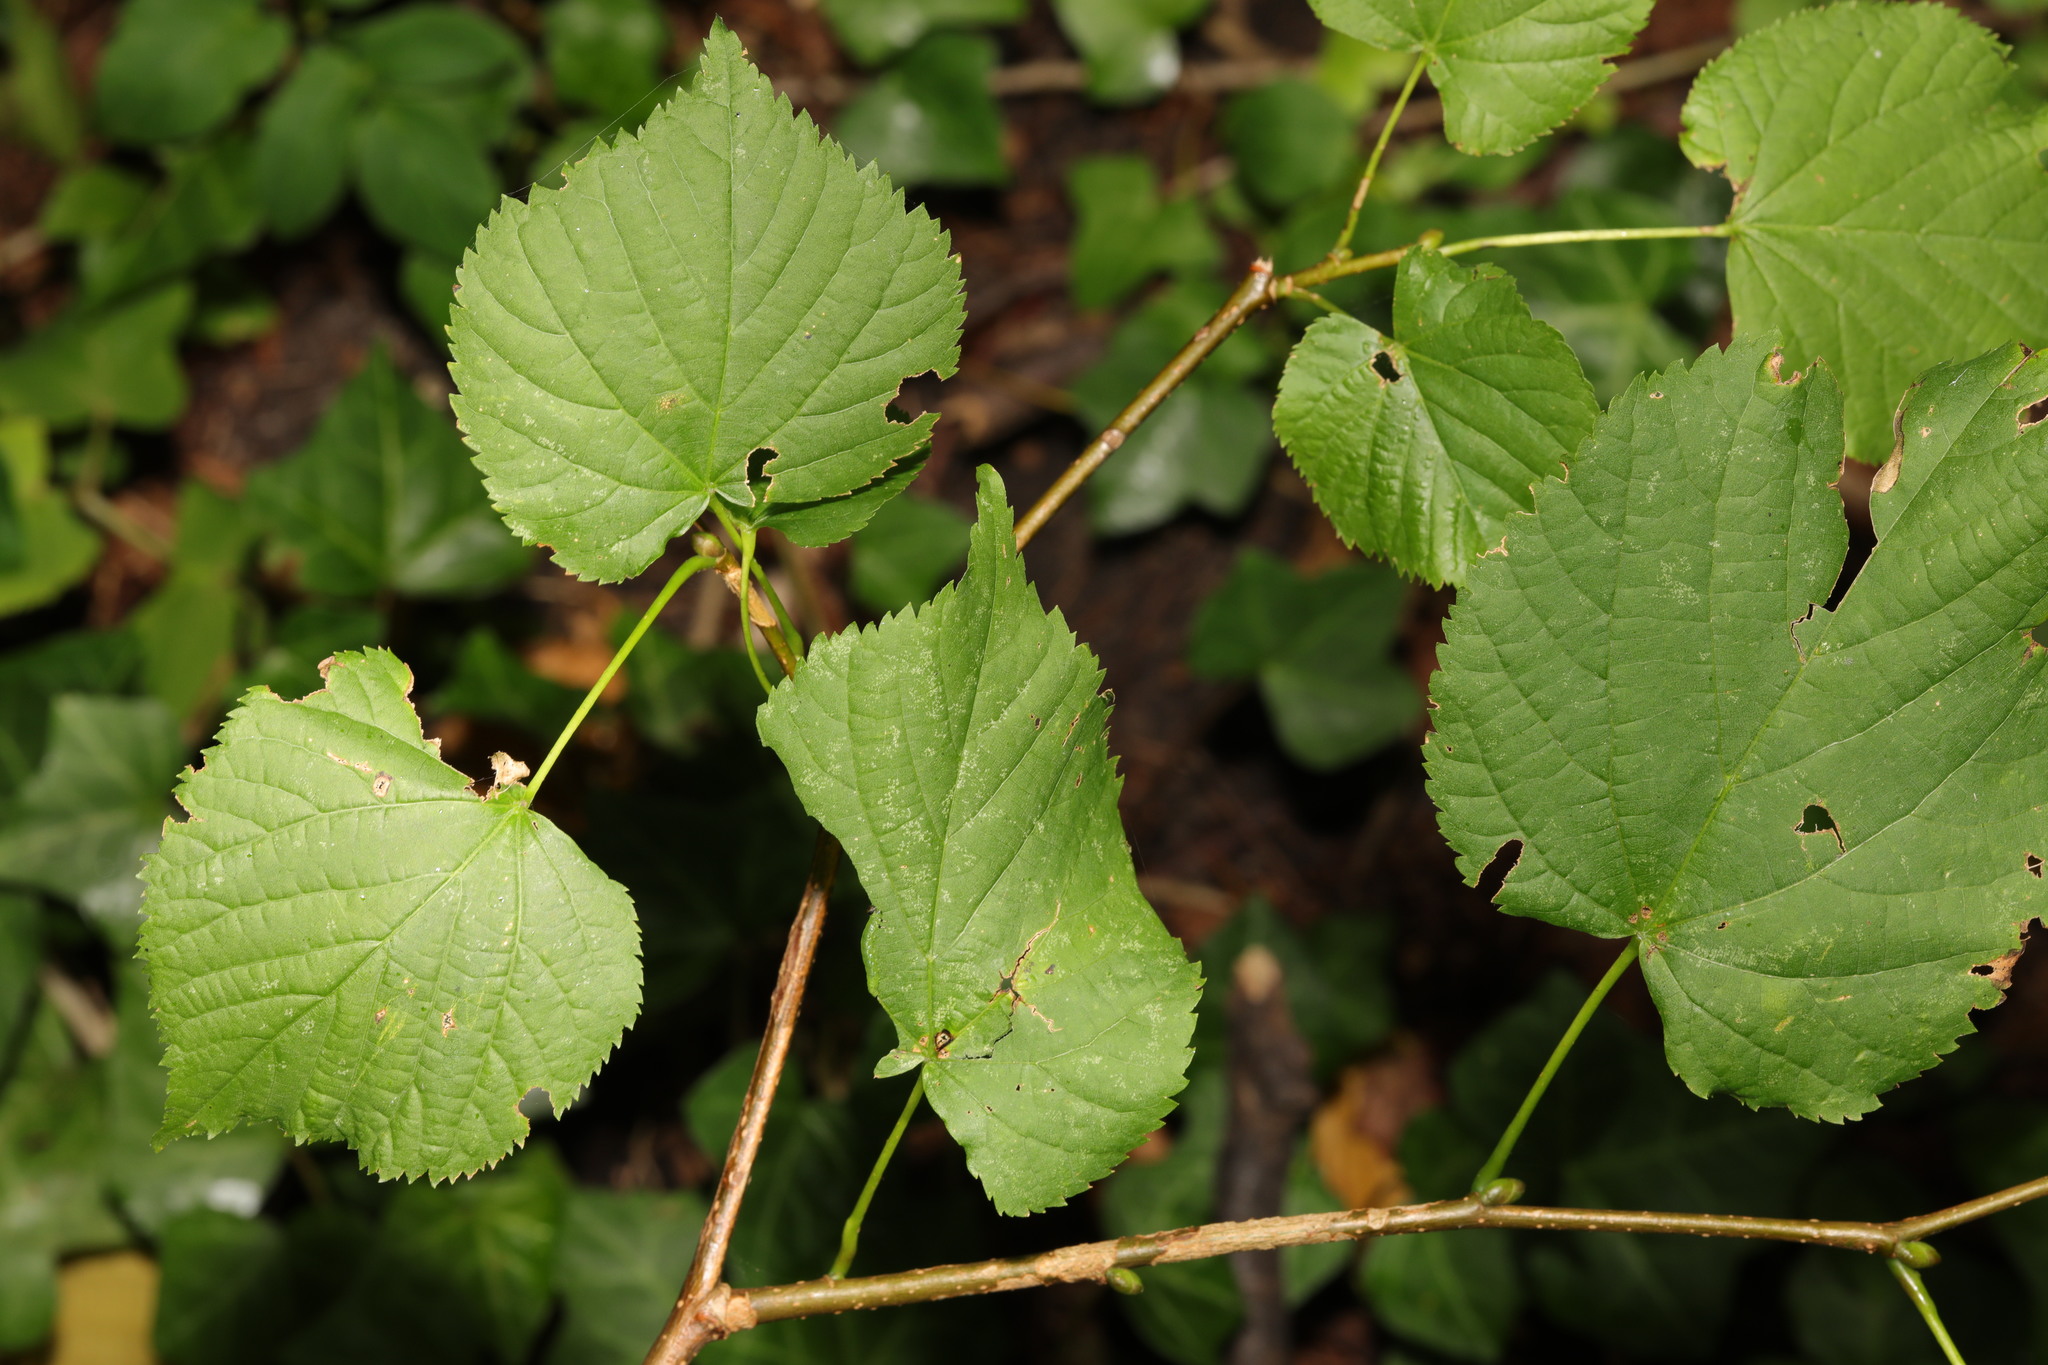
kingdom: Plantae
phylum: Tracheophyta
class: Magnoliopsida
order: Malvales
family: Malvaceae
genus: Tilia
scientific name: Tilia europaea
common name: European linden
